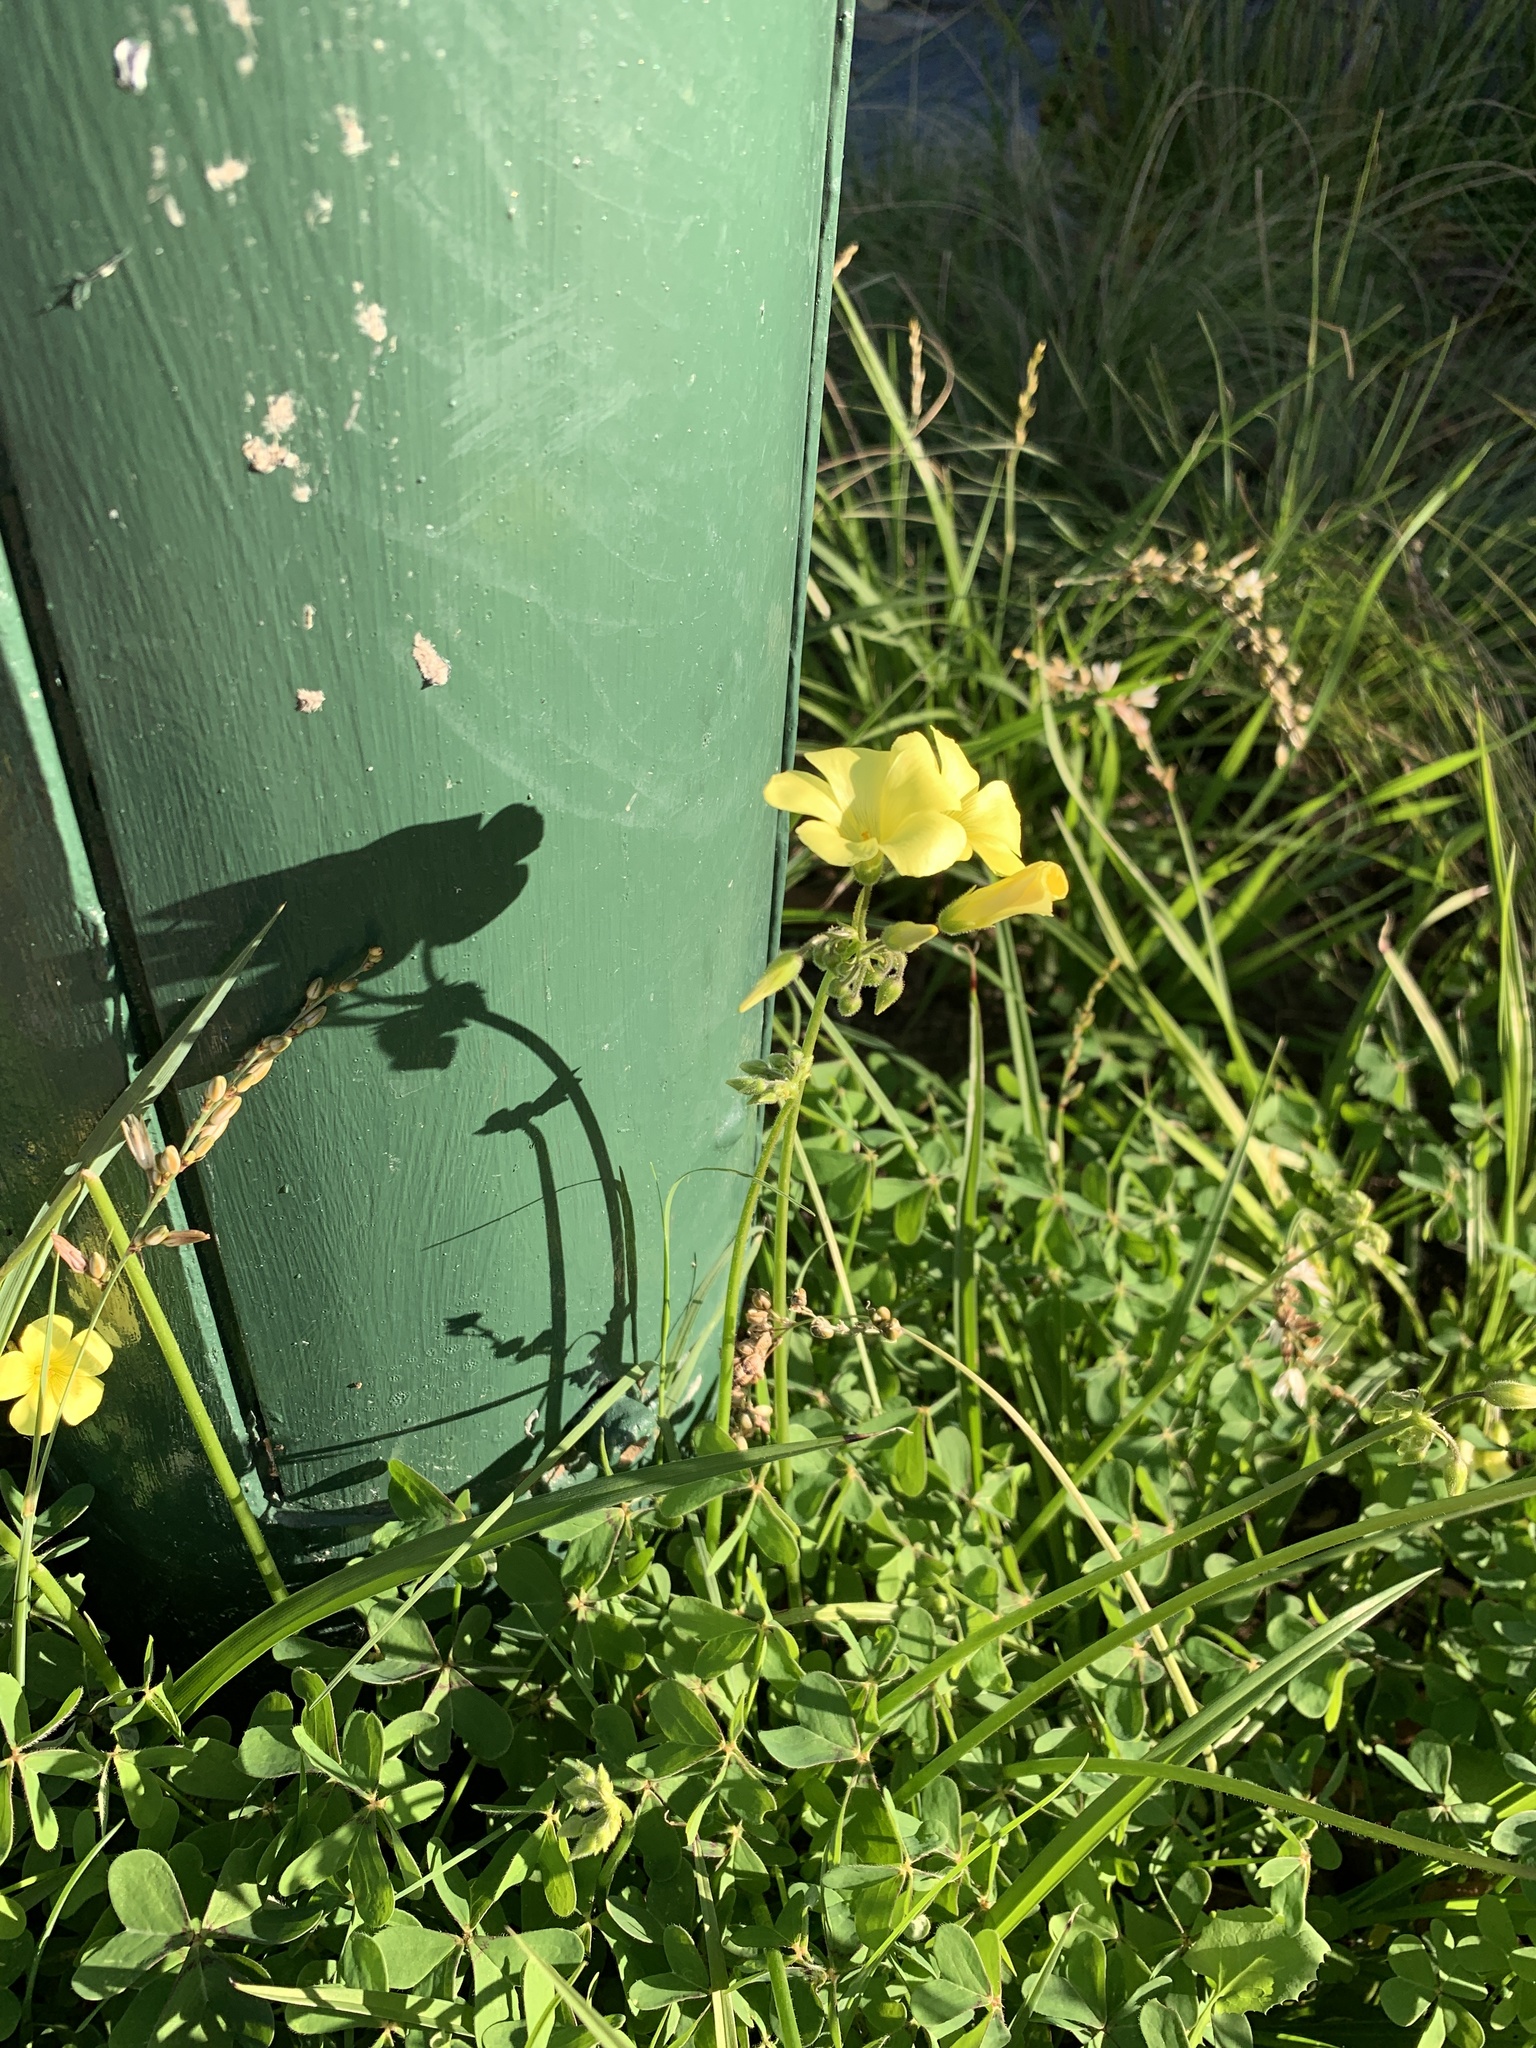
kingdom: Plantae
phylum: Tracheophyta
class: Magnoliopsida
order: Oxalidales
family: Oxalidaceae
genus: Oxalis
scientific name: Oxalis pes-caprae
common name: Bermuda-buttercup
